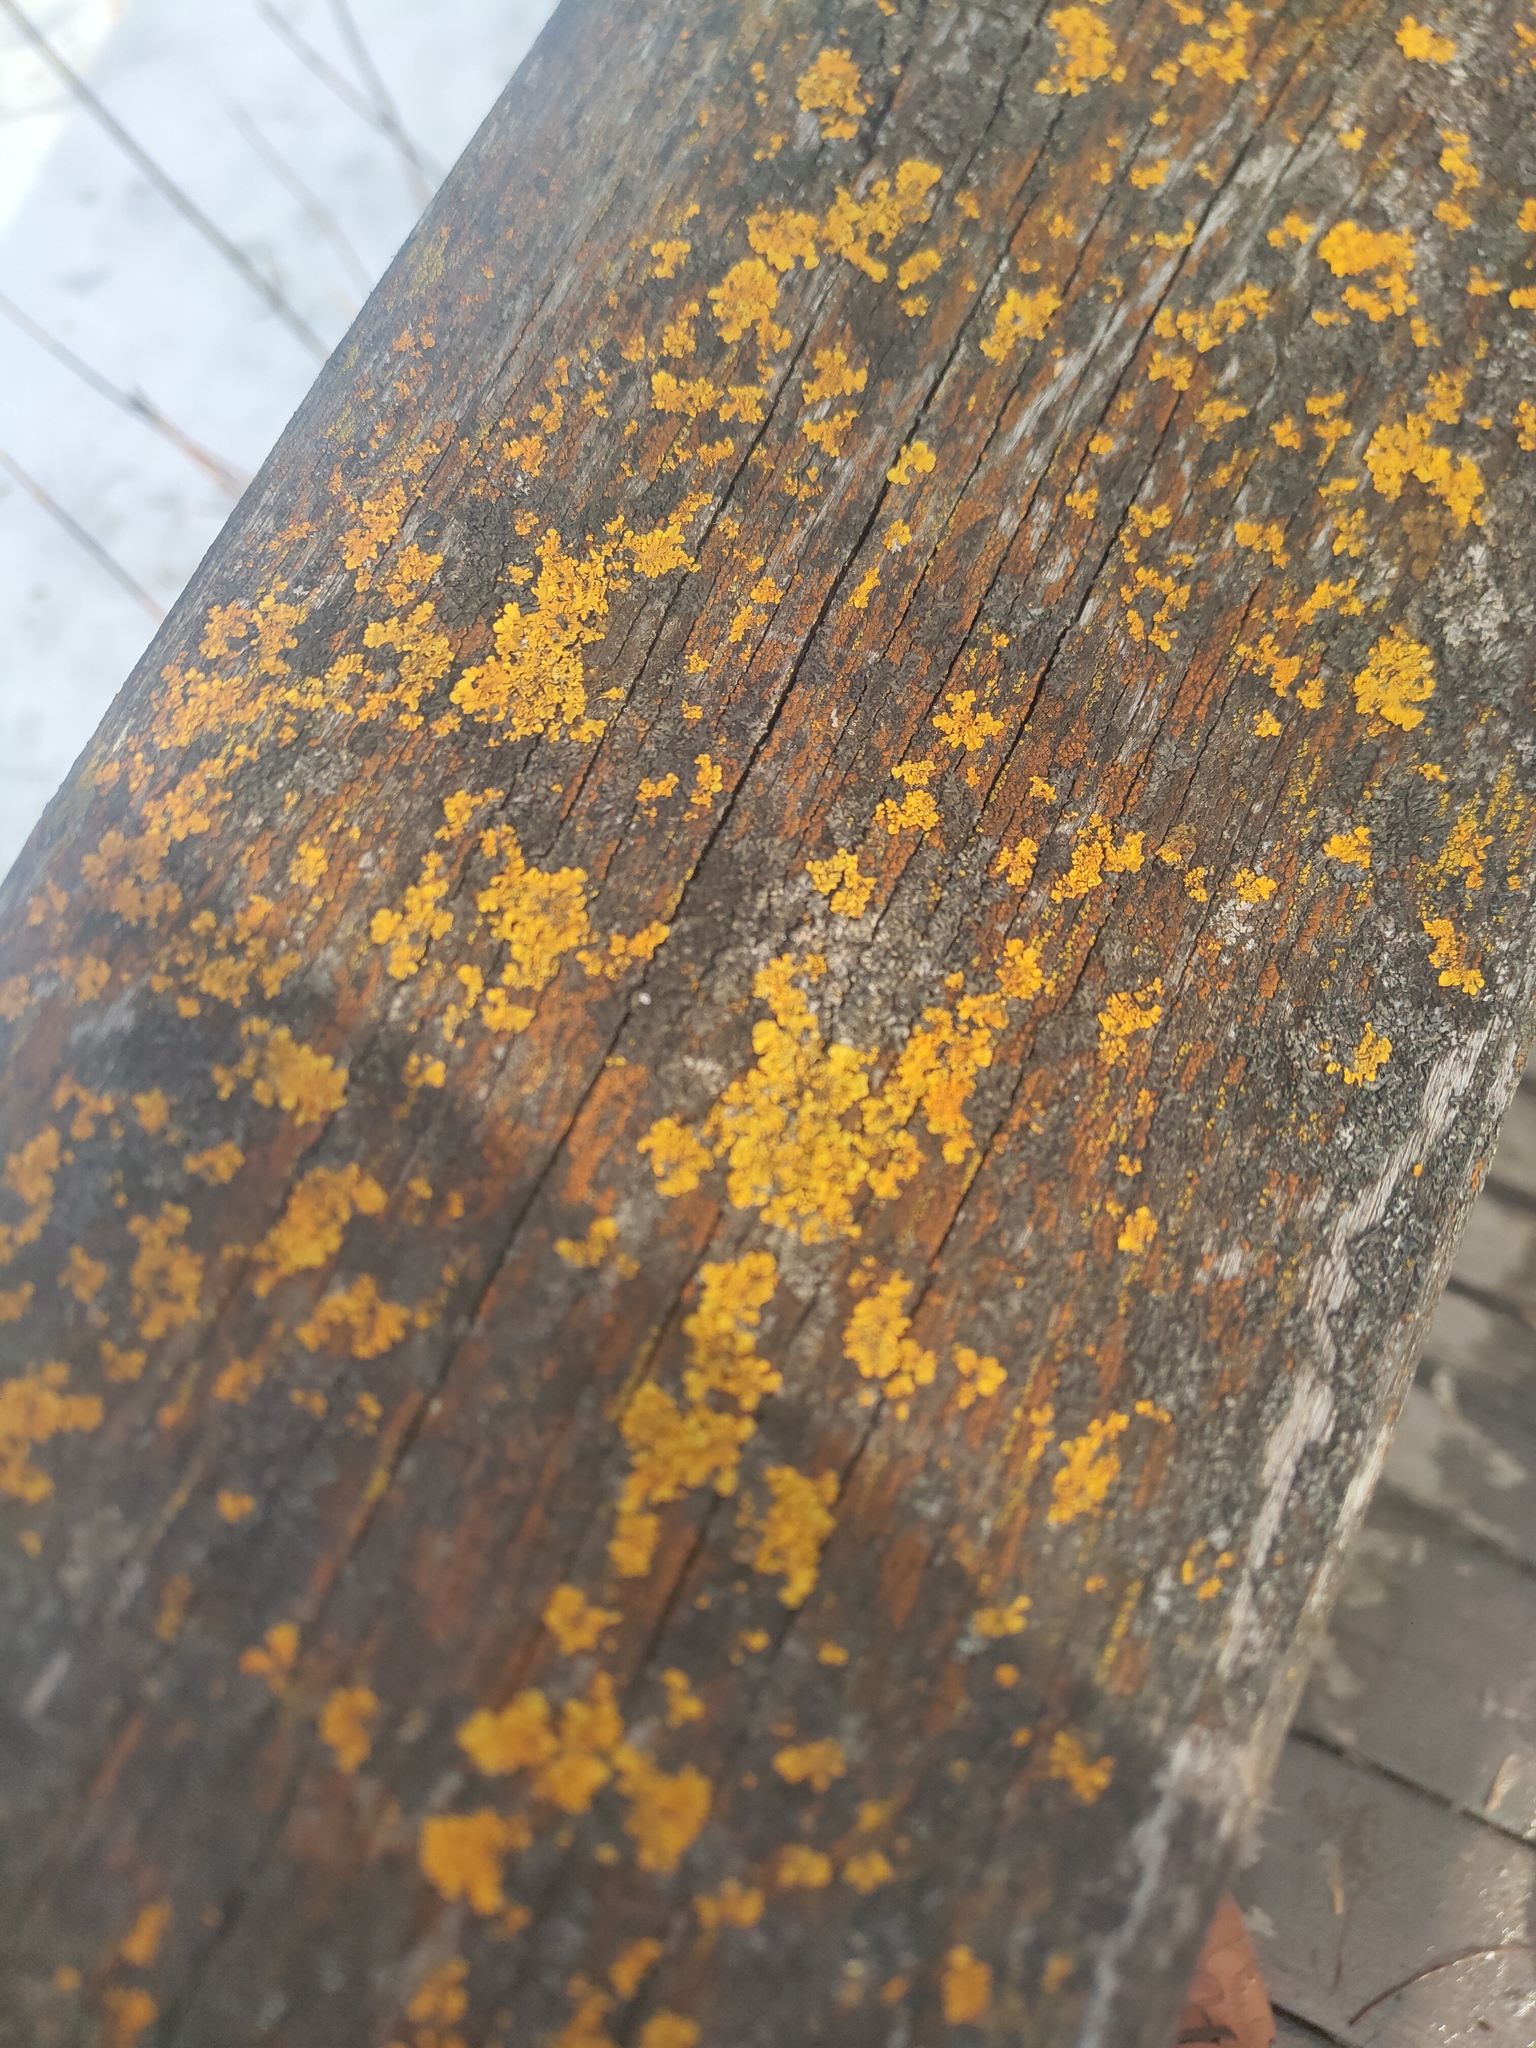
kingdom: Fungi
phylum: Ascomycota
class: Lecanoromycetes
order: Teloschistales
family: Teloschistaceae
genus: Xanthoria
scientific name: Xanthoria parietina
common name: Common orange lichen
